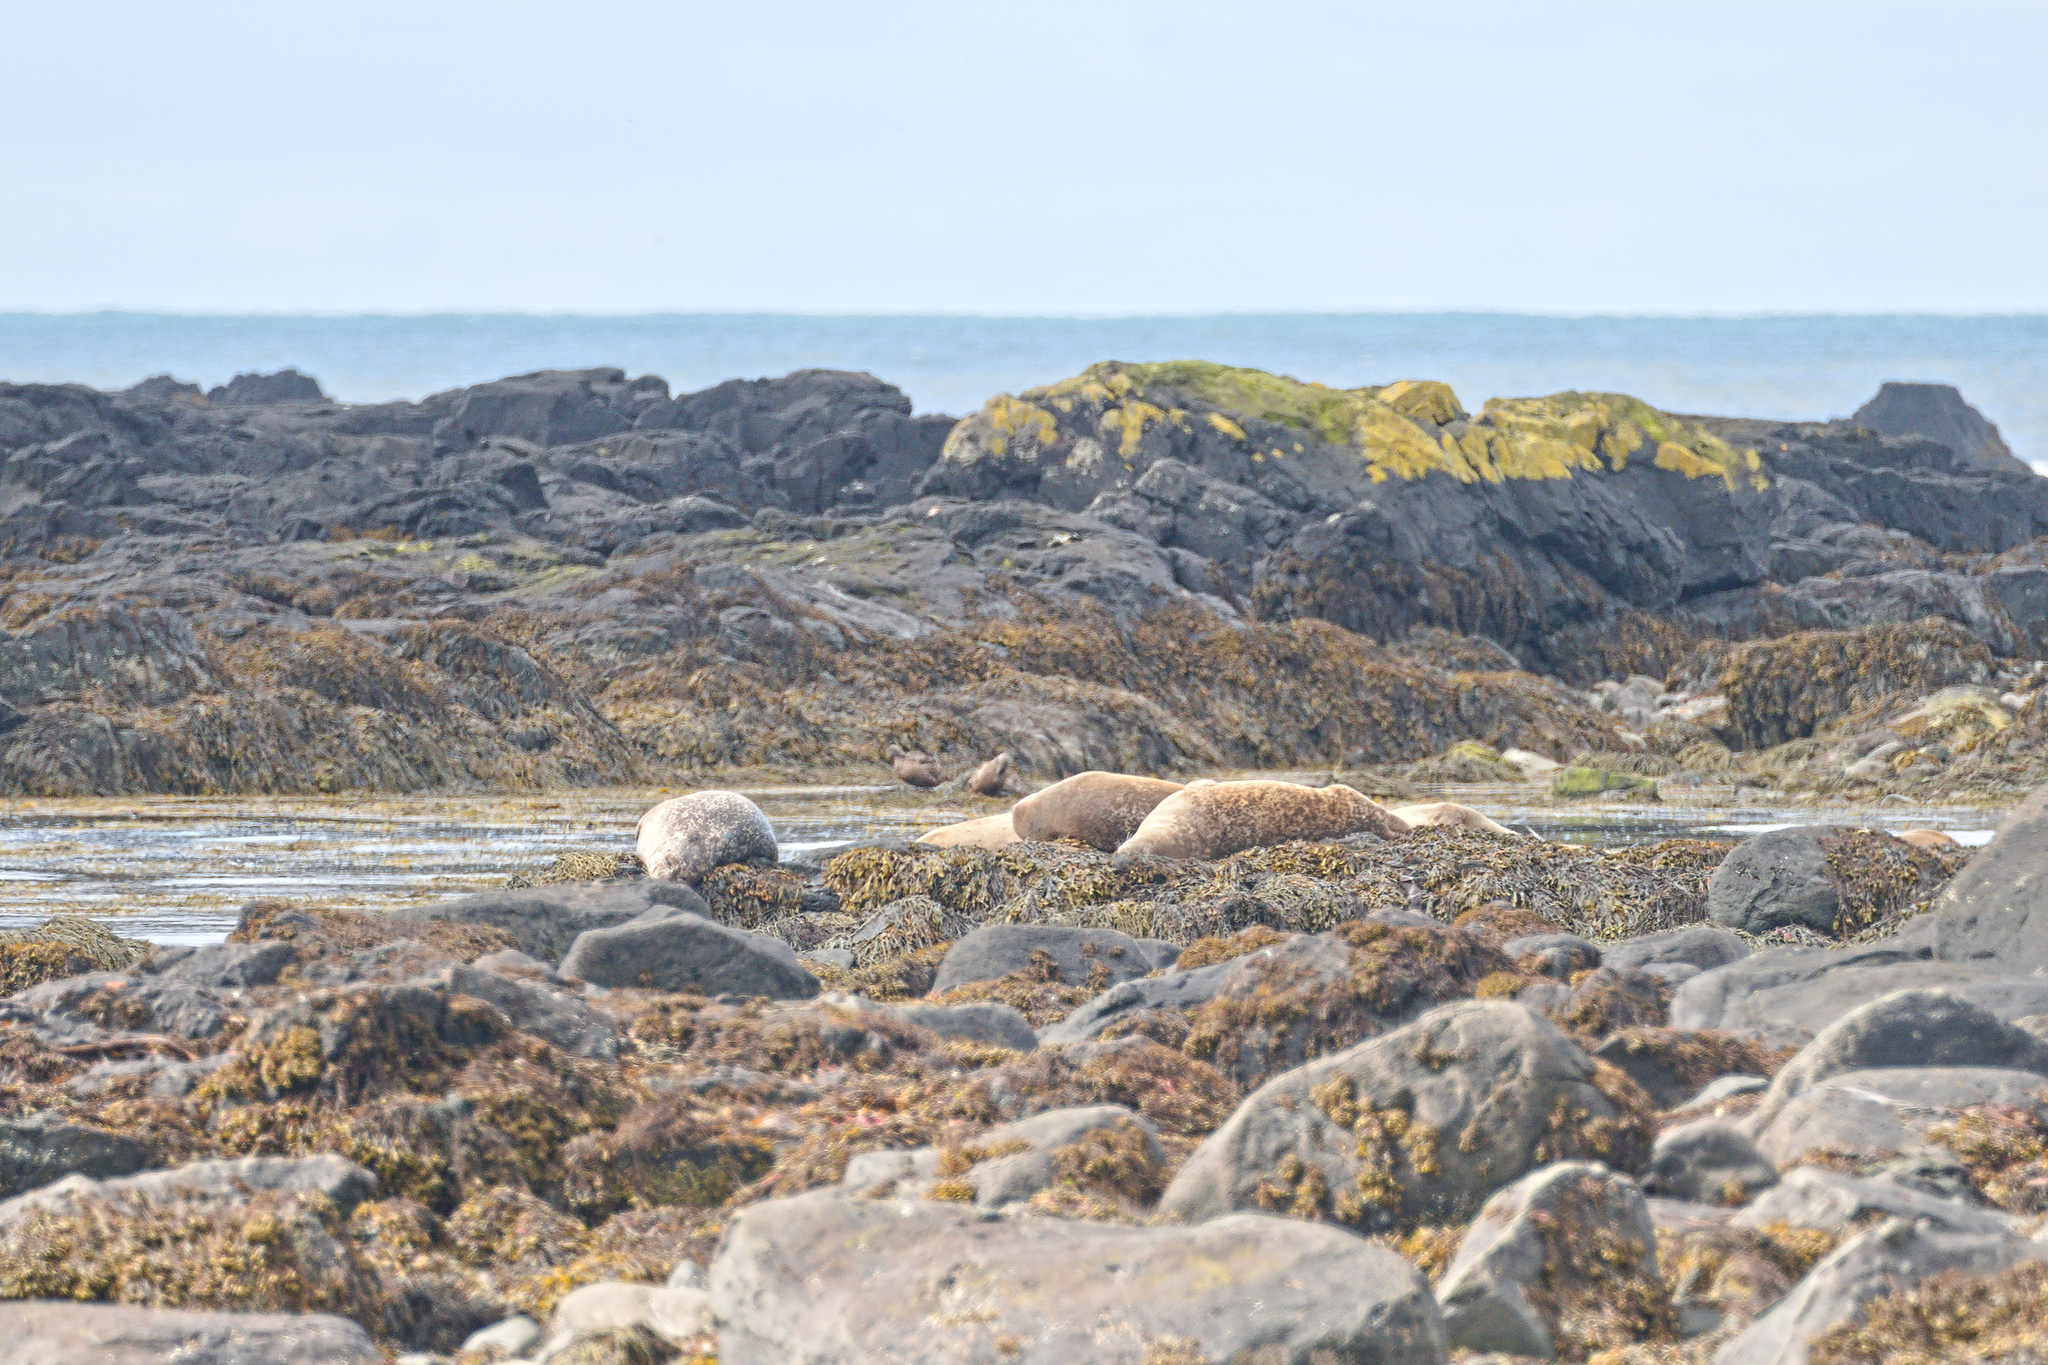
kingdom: Animalia
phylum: Chordata
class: Mammalia
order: Carnivora
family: Phocidae
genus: Phoca
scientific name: Phoca vitulina
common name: Harbor seal
